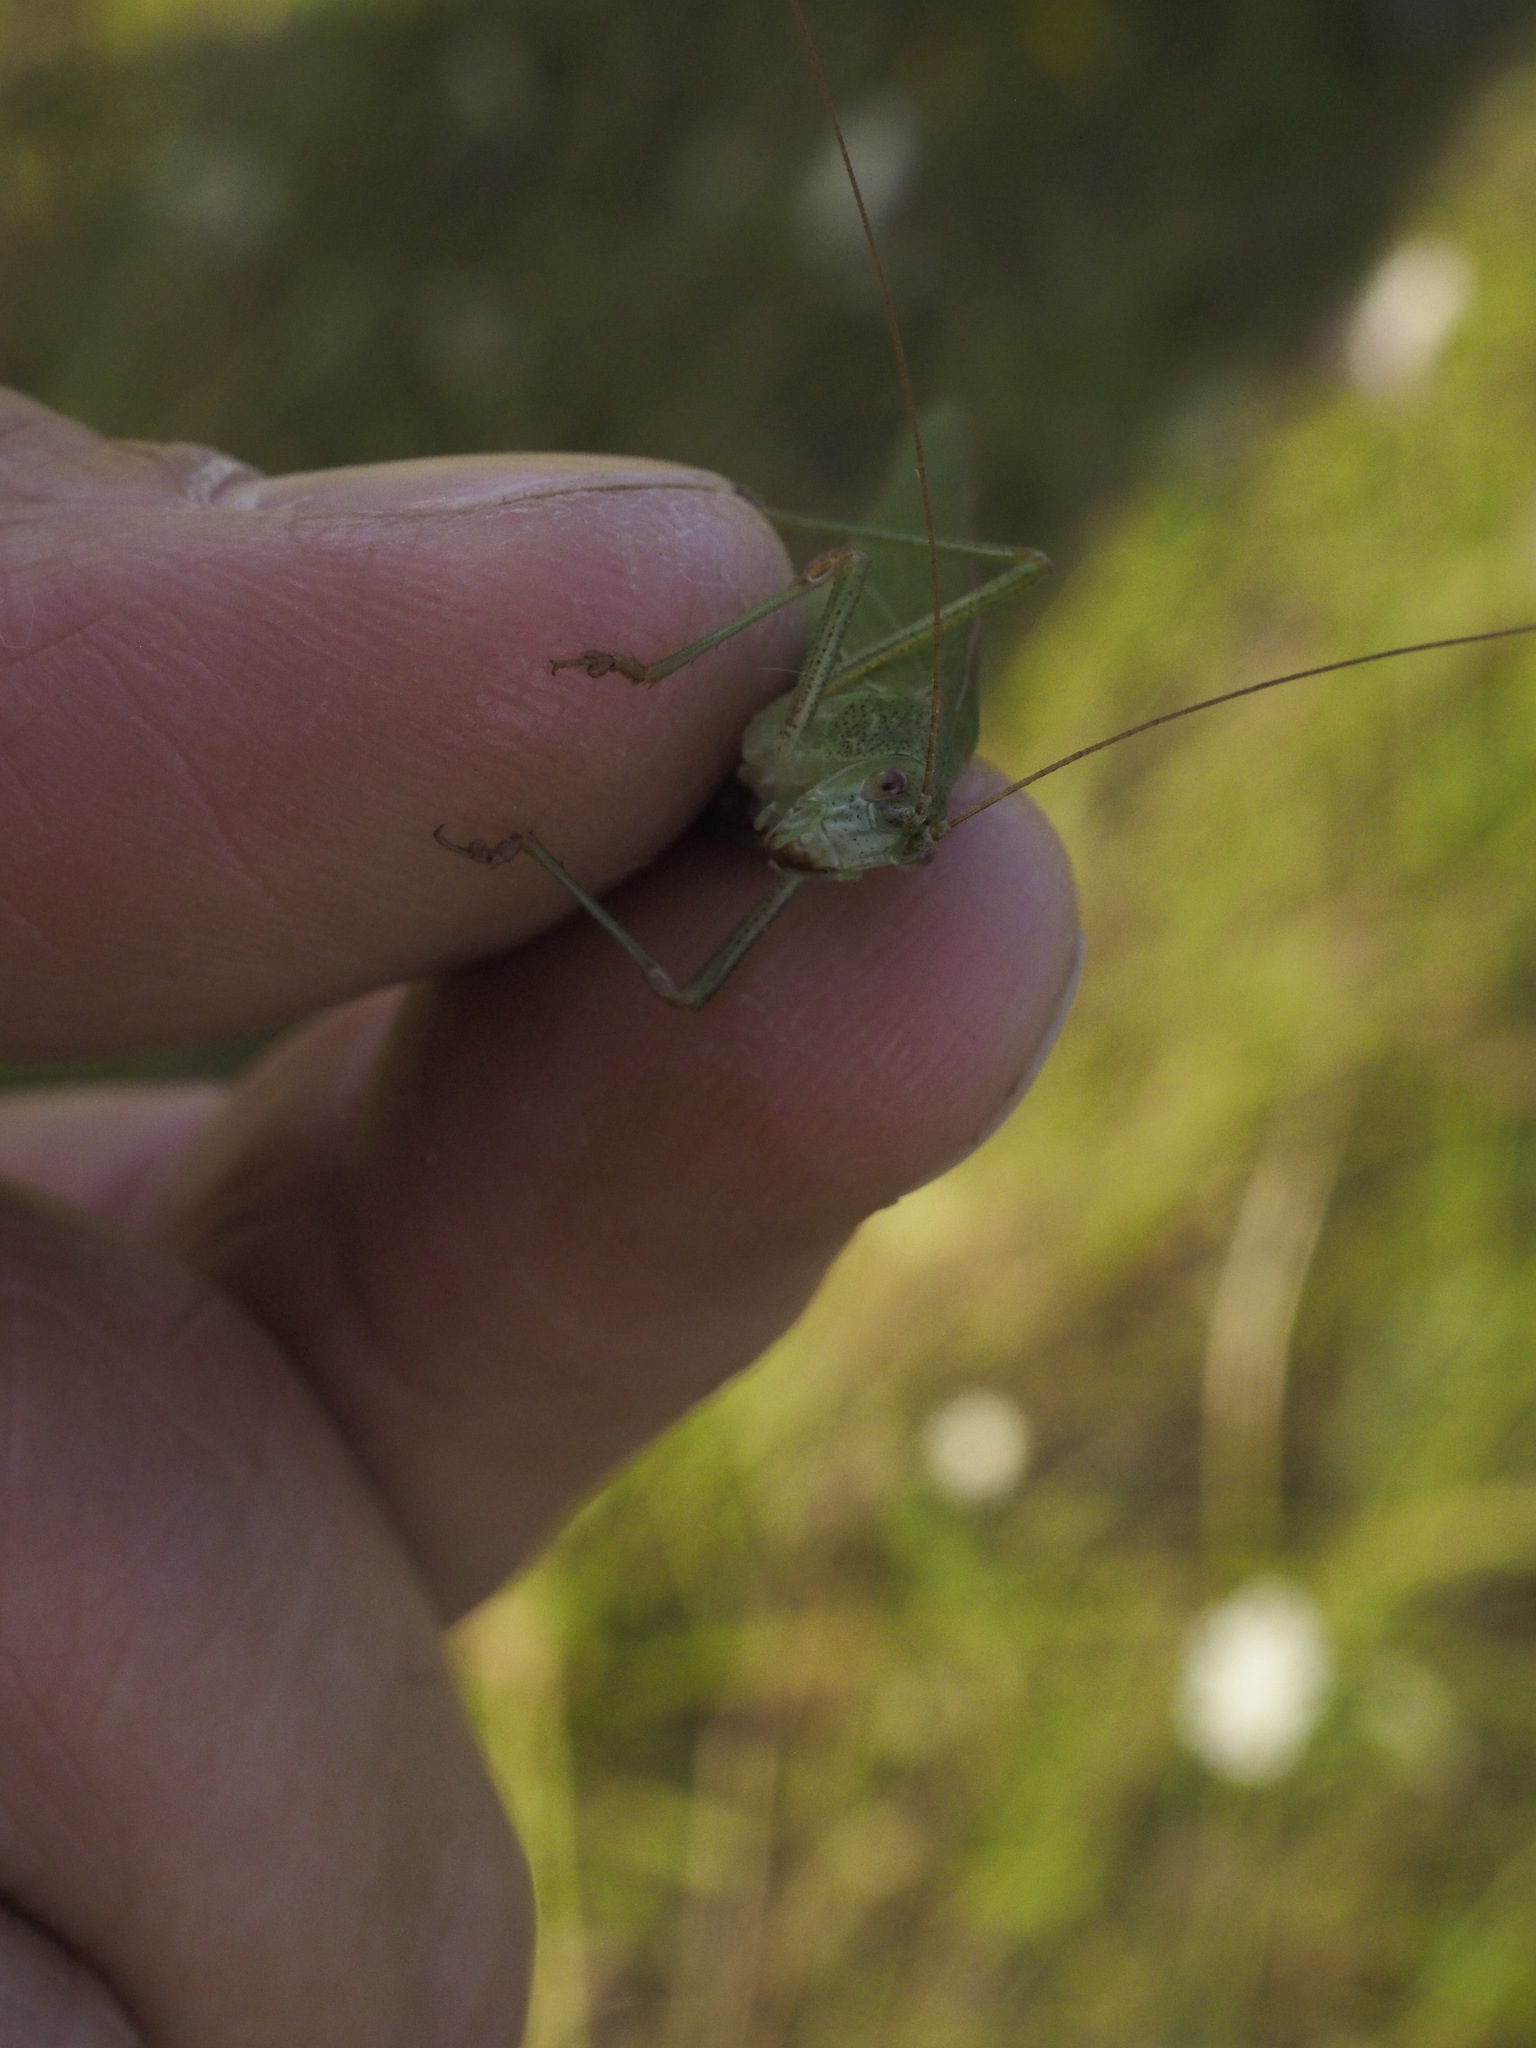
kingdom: Animalia
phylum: Arthropoda
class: Insecta
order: Orthoptera
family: Tettigoniidae
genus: Phaneroptera
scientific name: Phaneroptera nana
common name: Southern sickle bush-cricket
